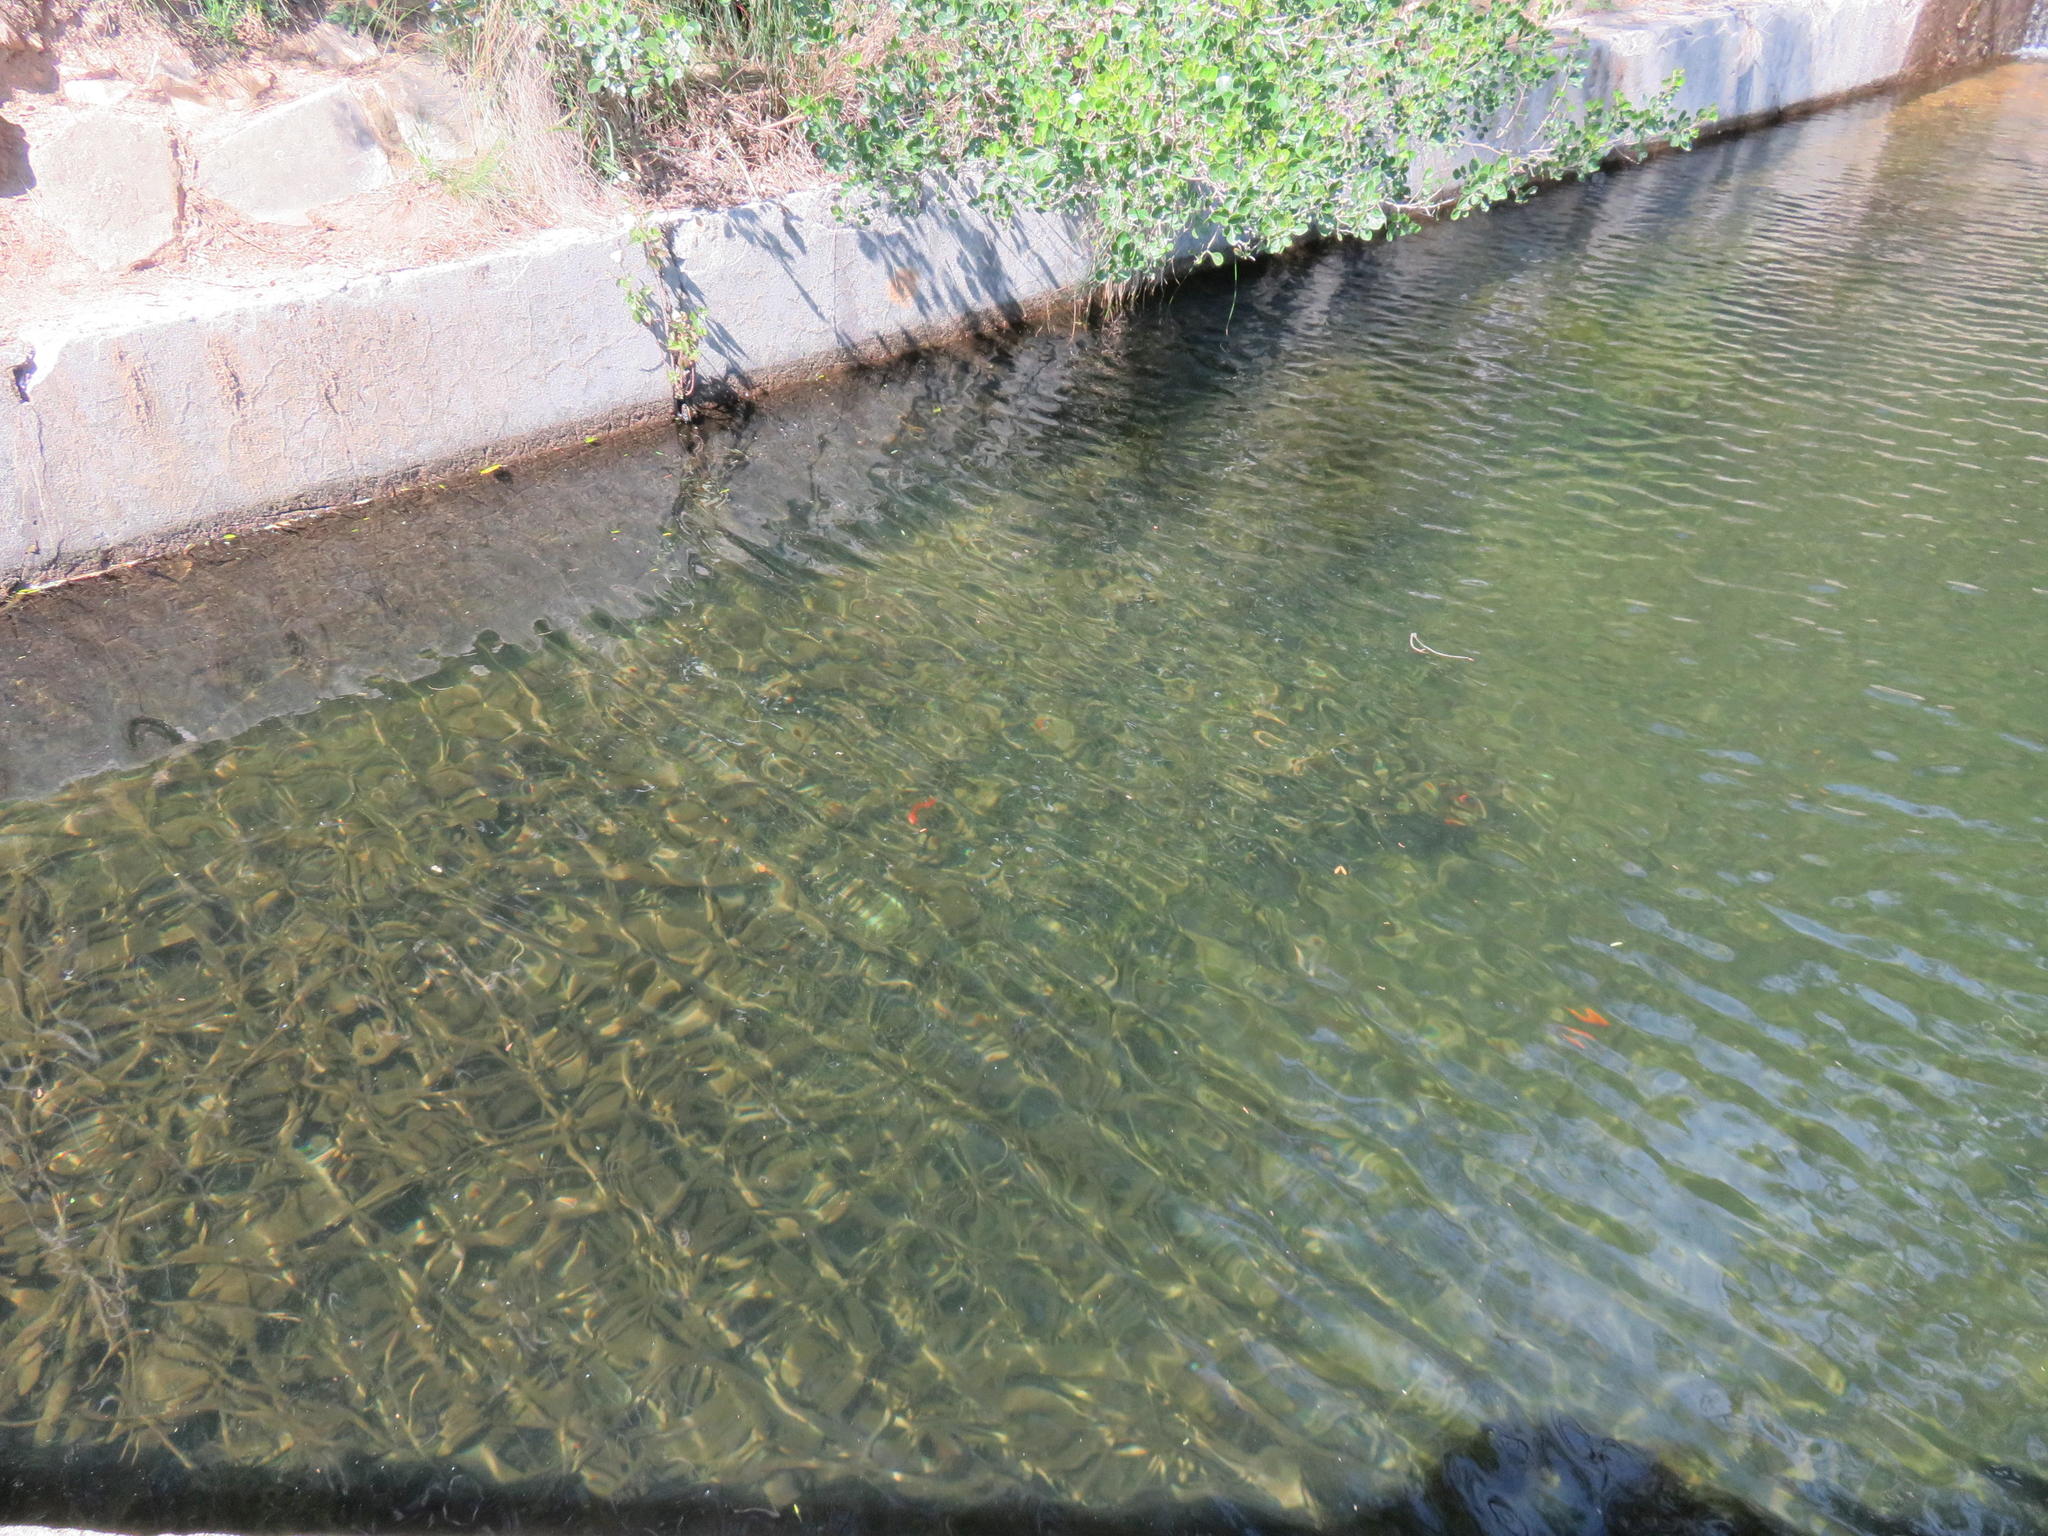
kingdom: Animalia
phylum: Chordata
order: Cyprinodontiformes
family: Poeciliidae
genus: Poecilia
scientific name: Poecilia reticulata
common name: Guppy
